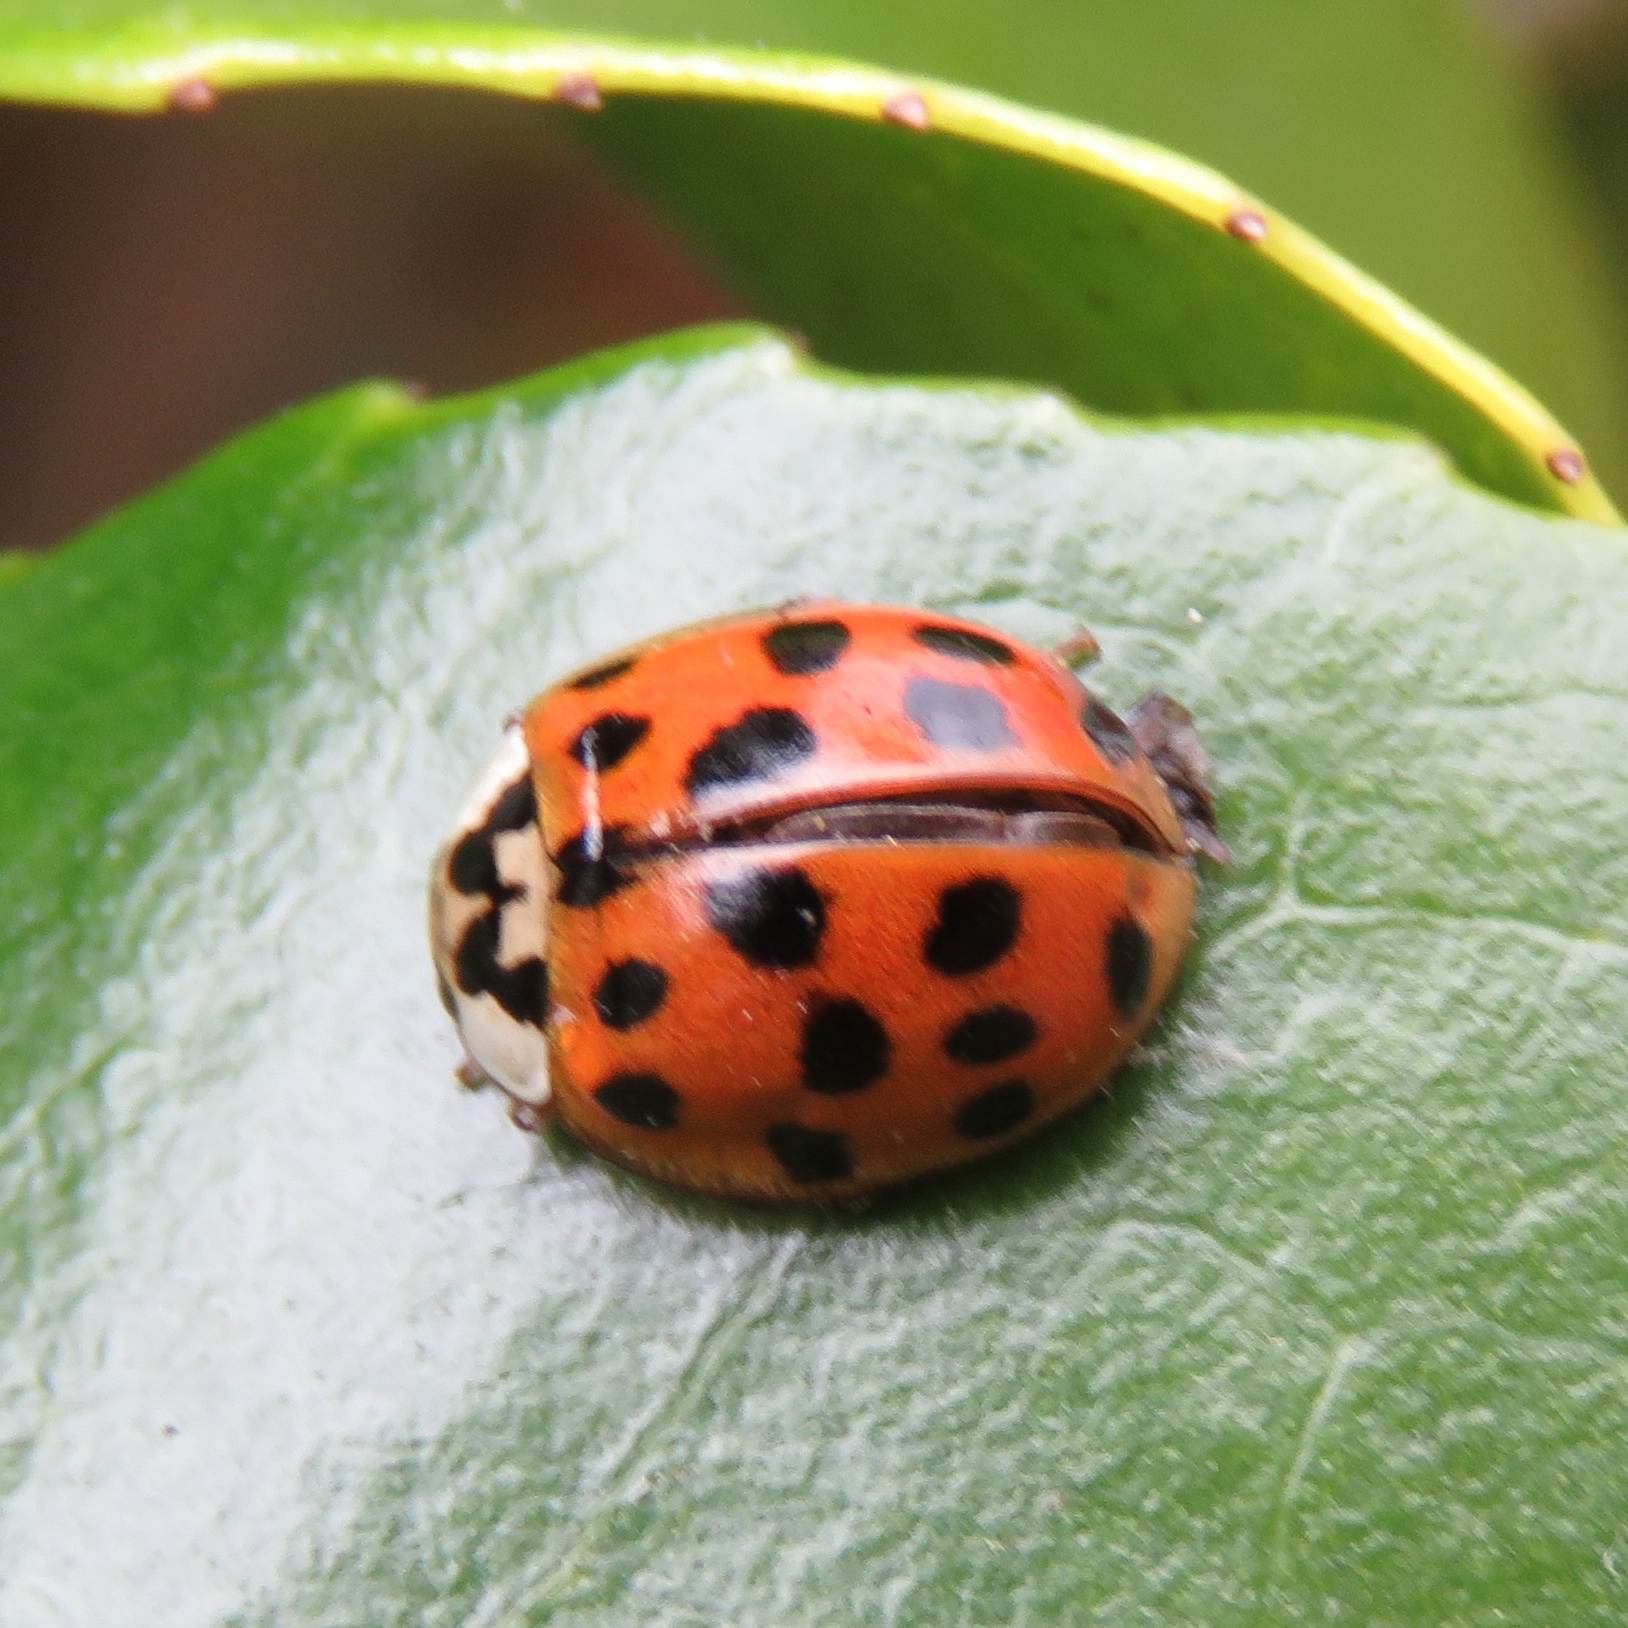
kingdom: Animalia
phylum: Arthropoda
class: Insecta
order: Coleoptera
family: Coccinellidae
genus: Harmonia
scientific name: Harmonia axyridis
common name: Harlequin ladybird
